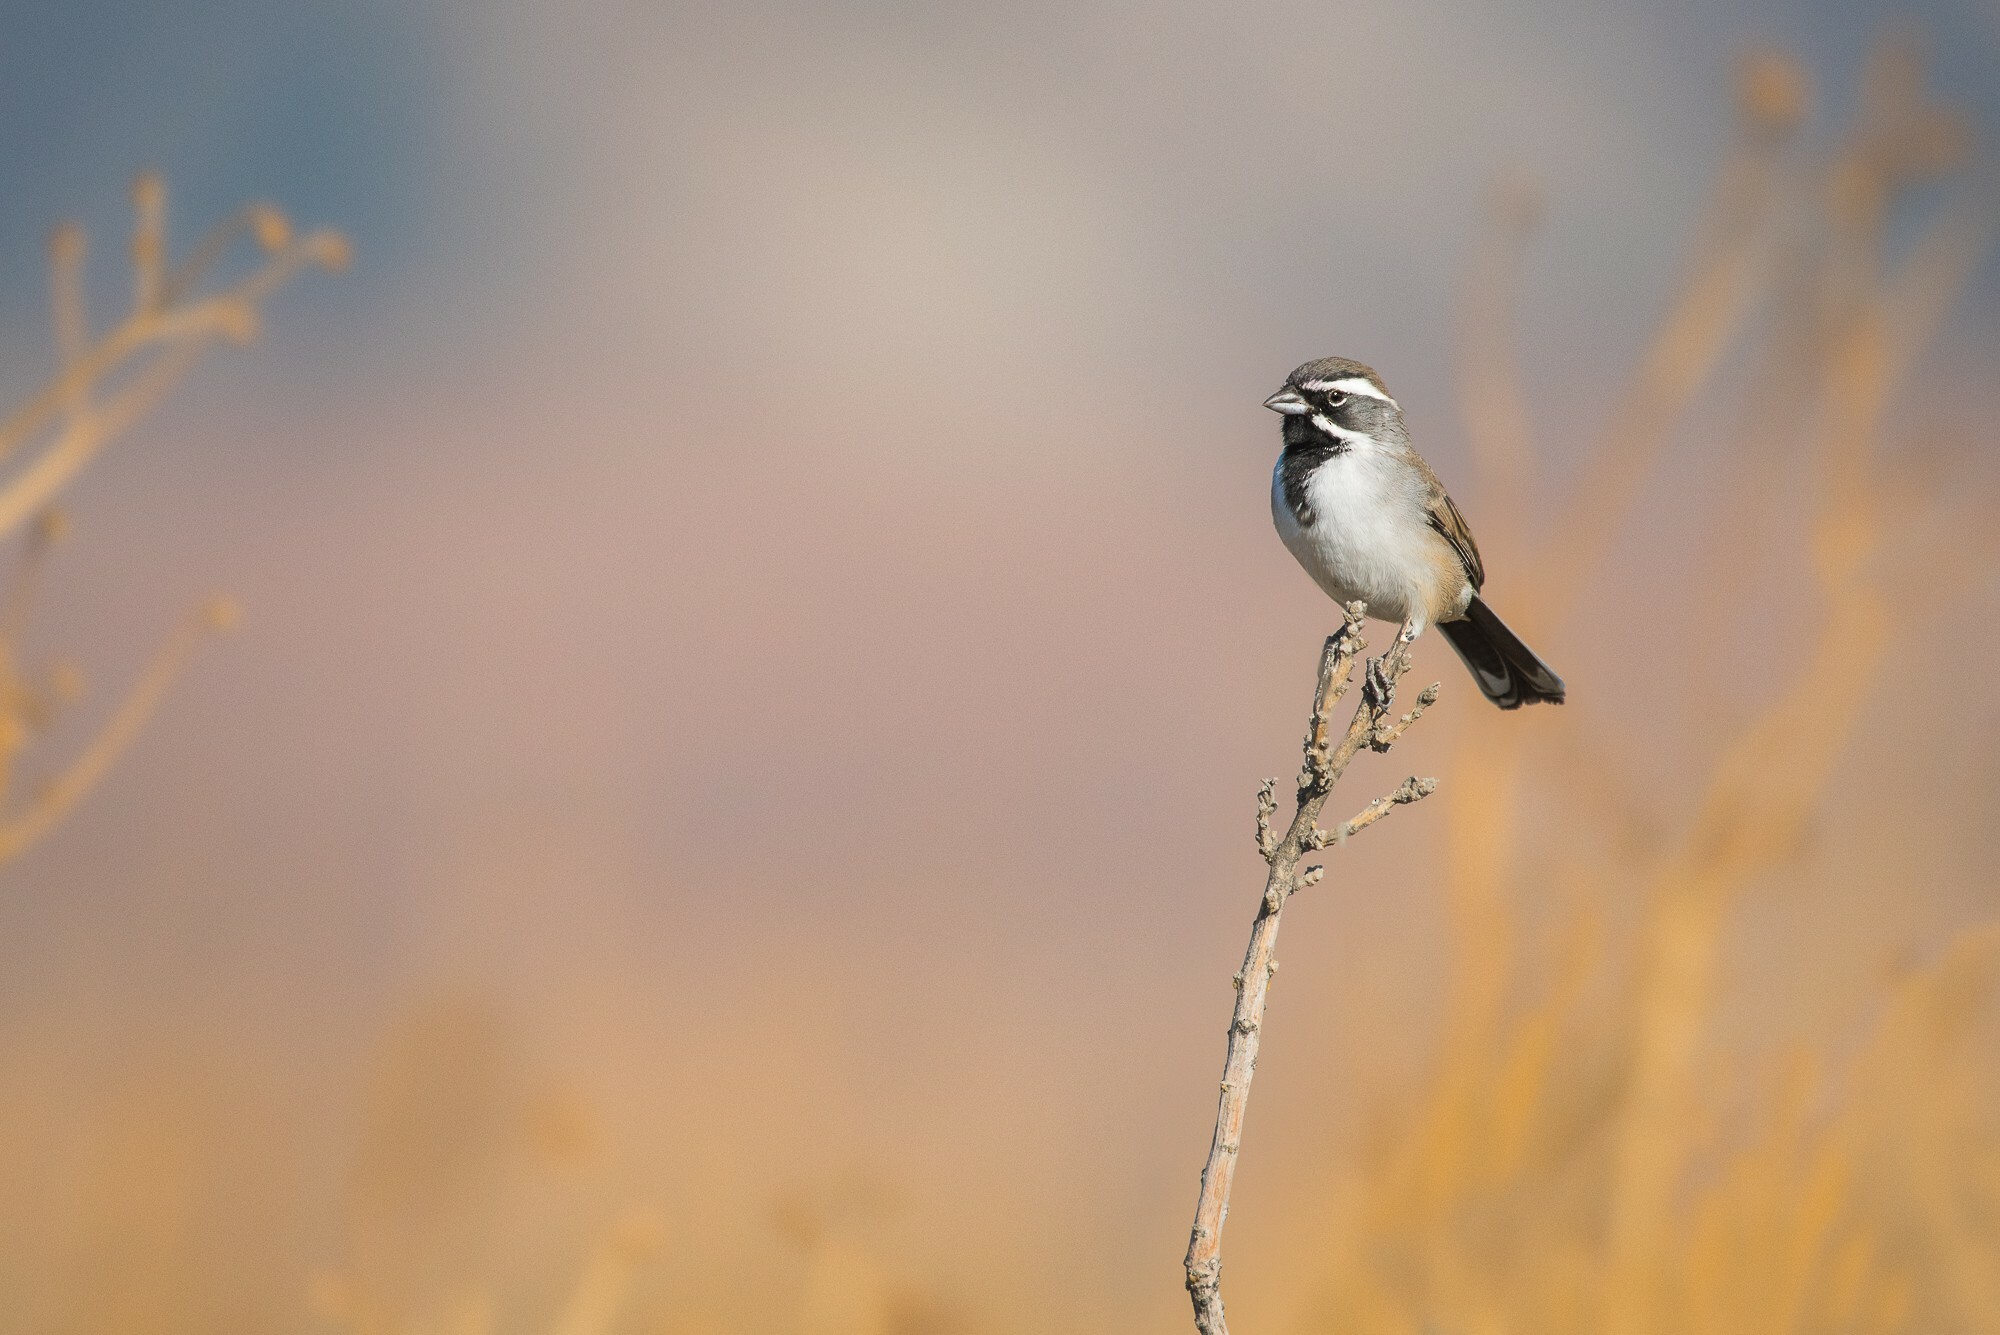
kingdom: Animalia
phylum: Chordata
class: Aves
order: Passeriformes
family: Passerellidae
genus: Amphispiza
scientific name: Amphispiza bilineata
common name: Black-throated sparrow
